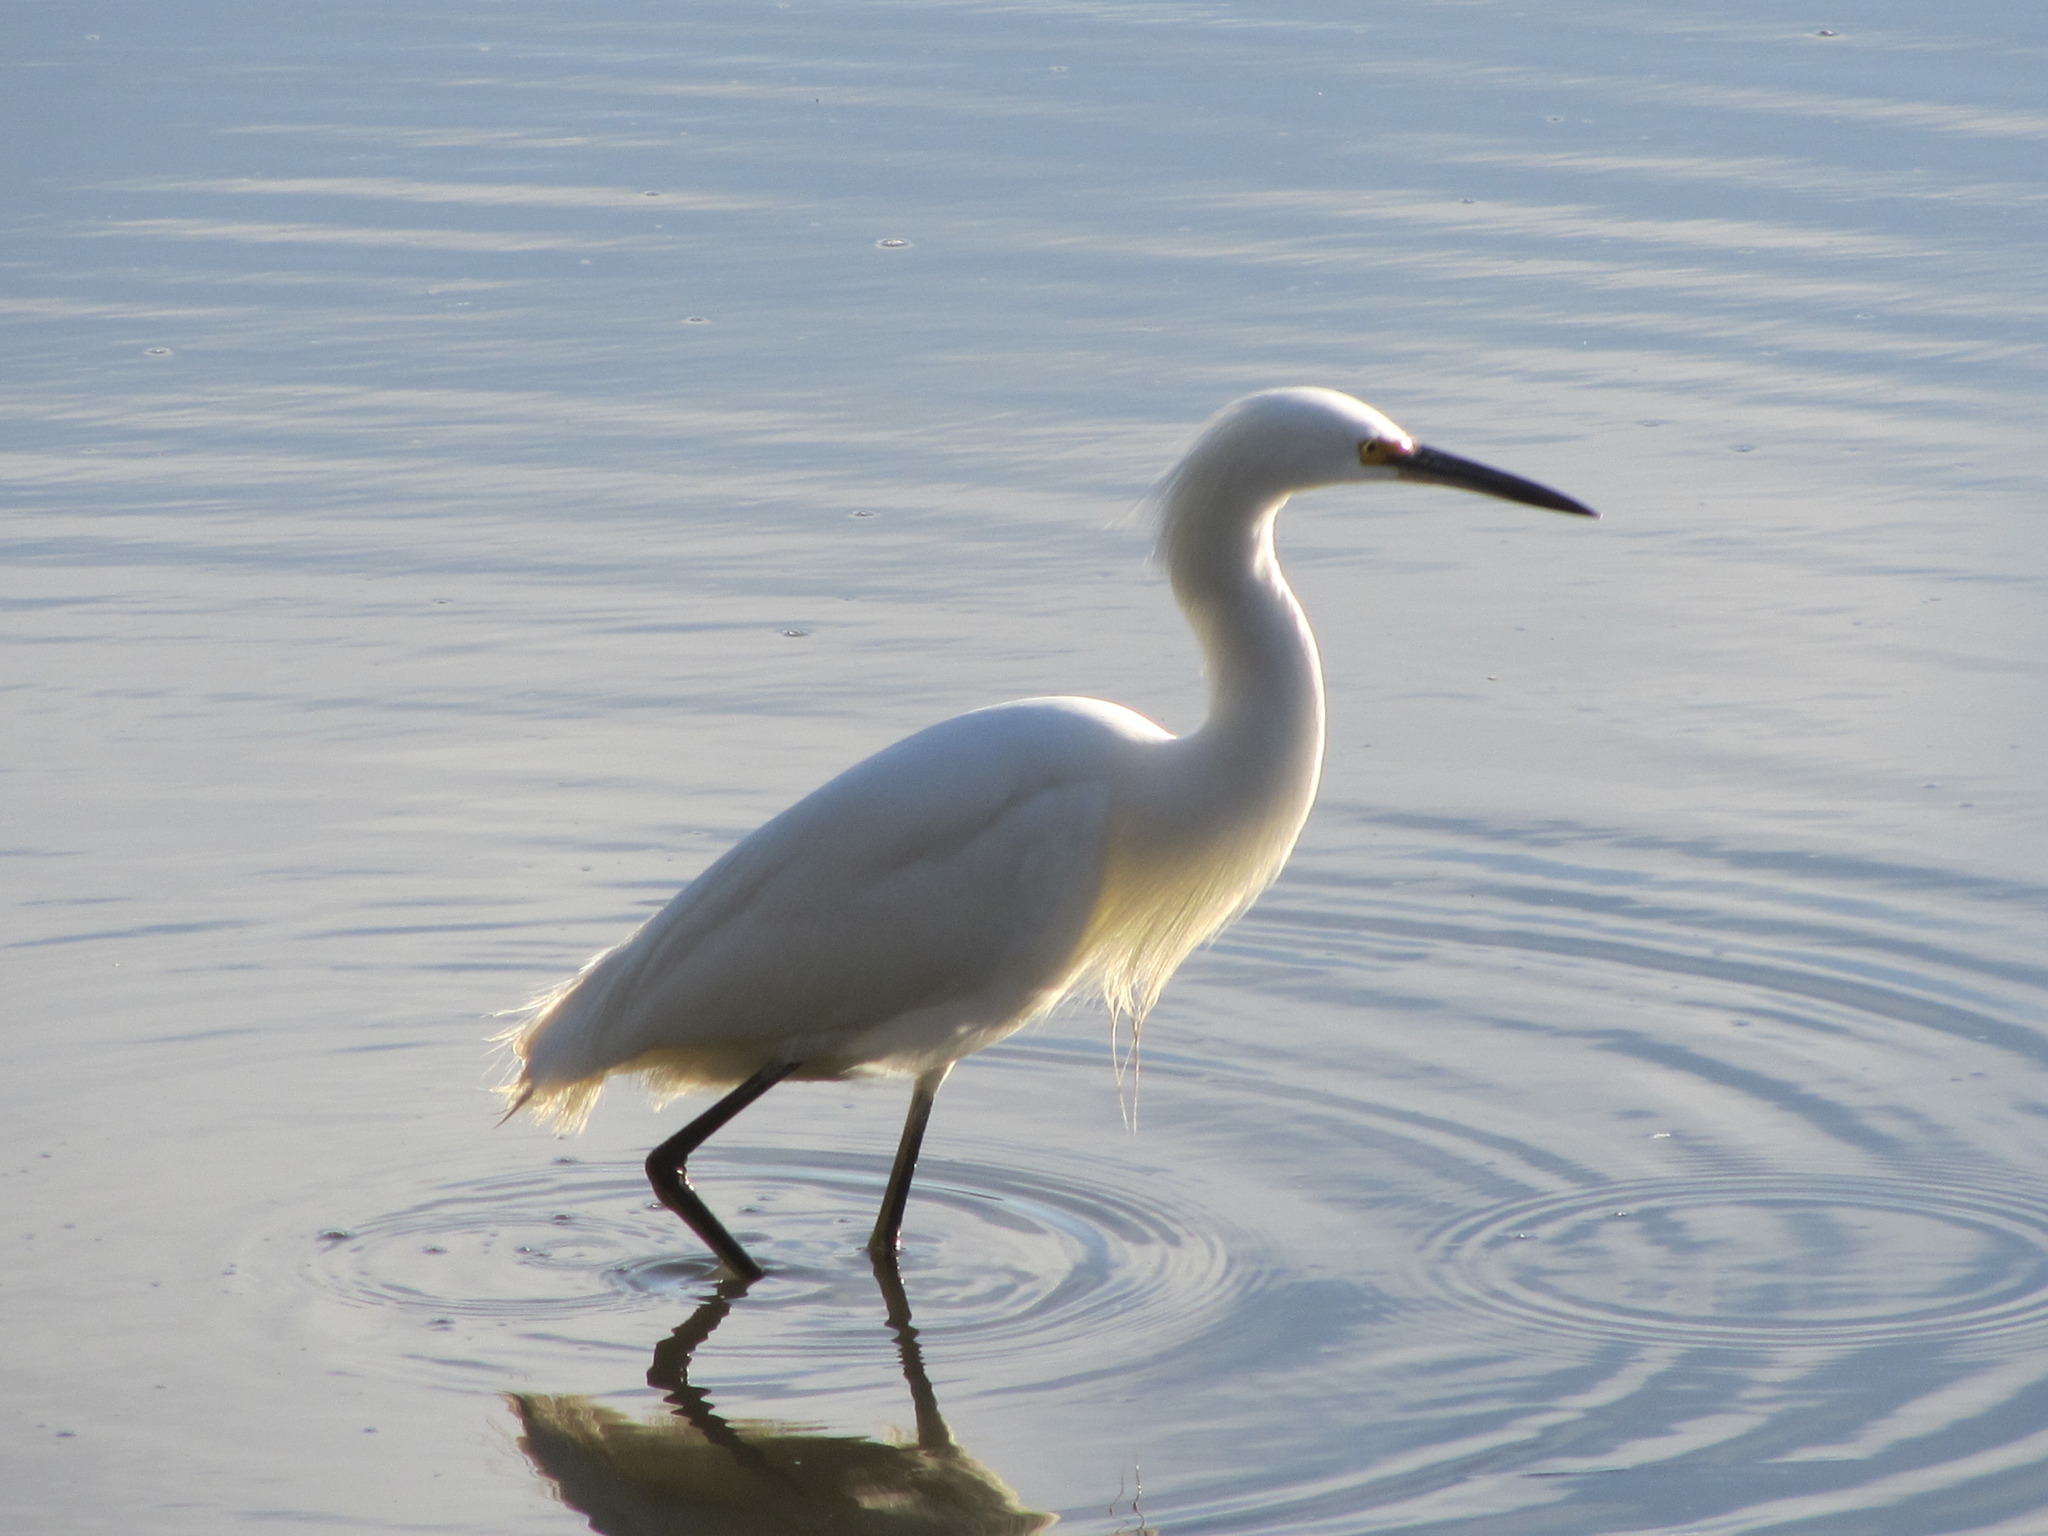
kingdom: Animalia
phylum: Chordata
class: Aves
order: Pelecaniformes
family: Ardeidae
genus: Egretta
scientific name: Egretta thula
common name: Snowy egret
